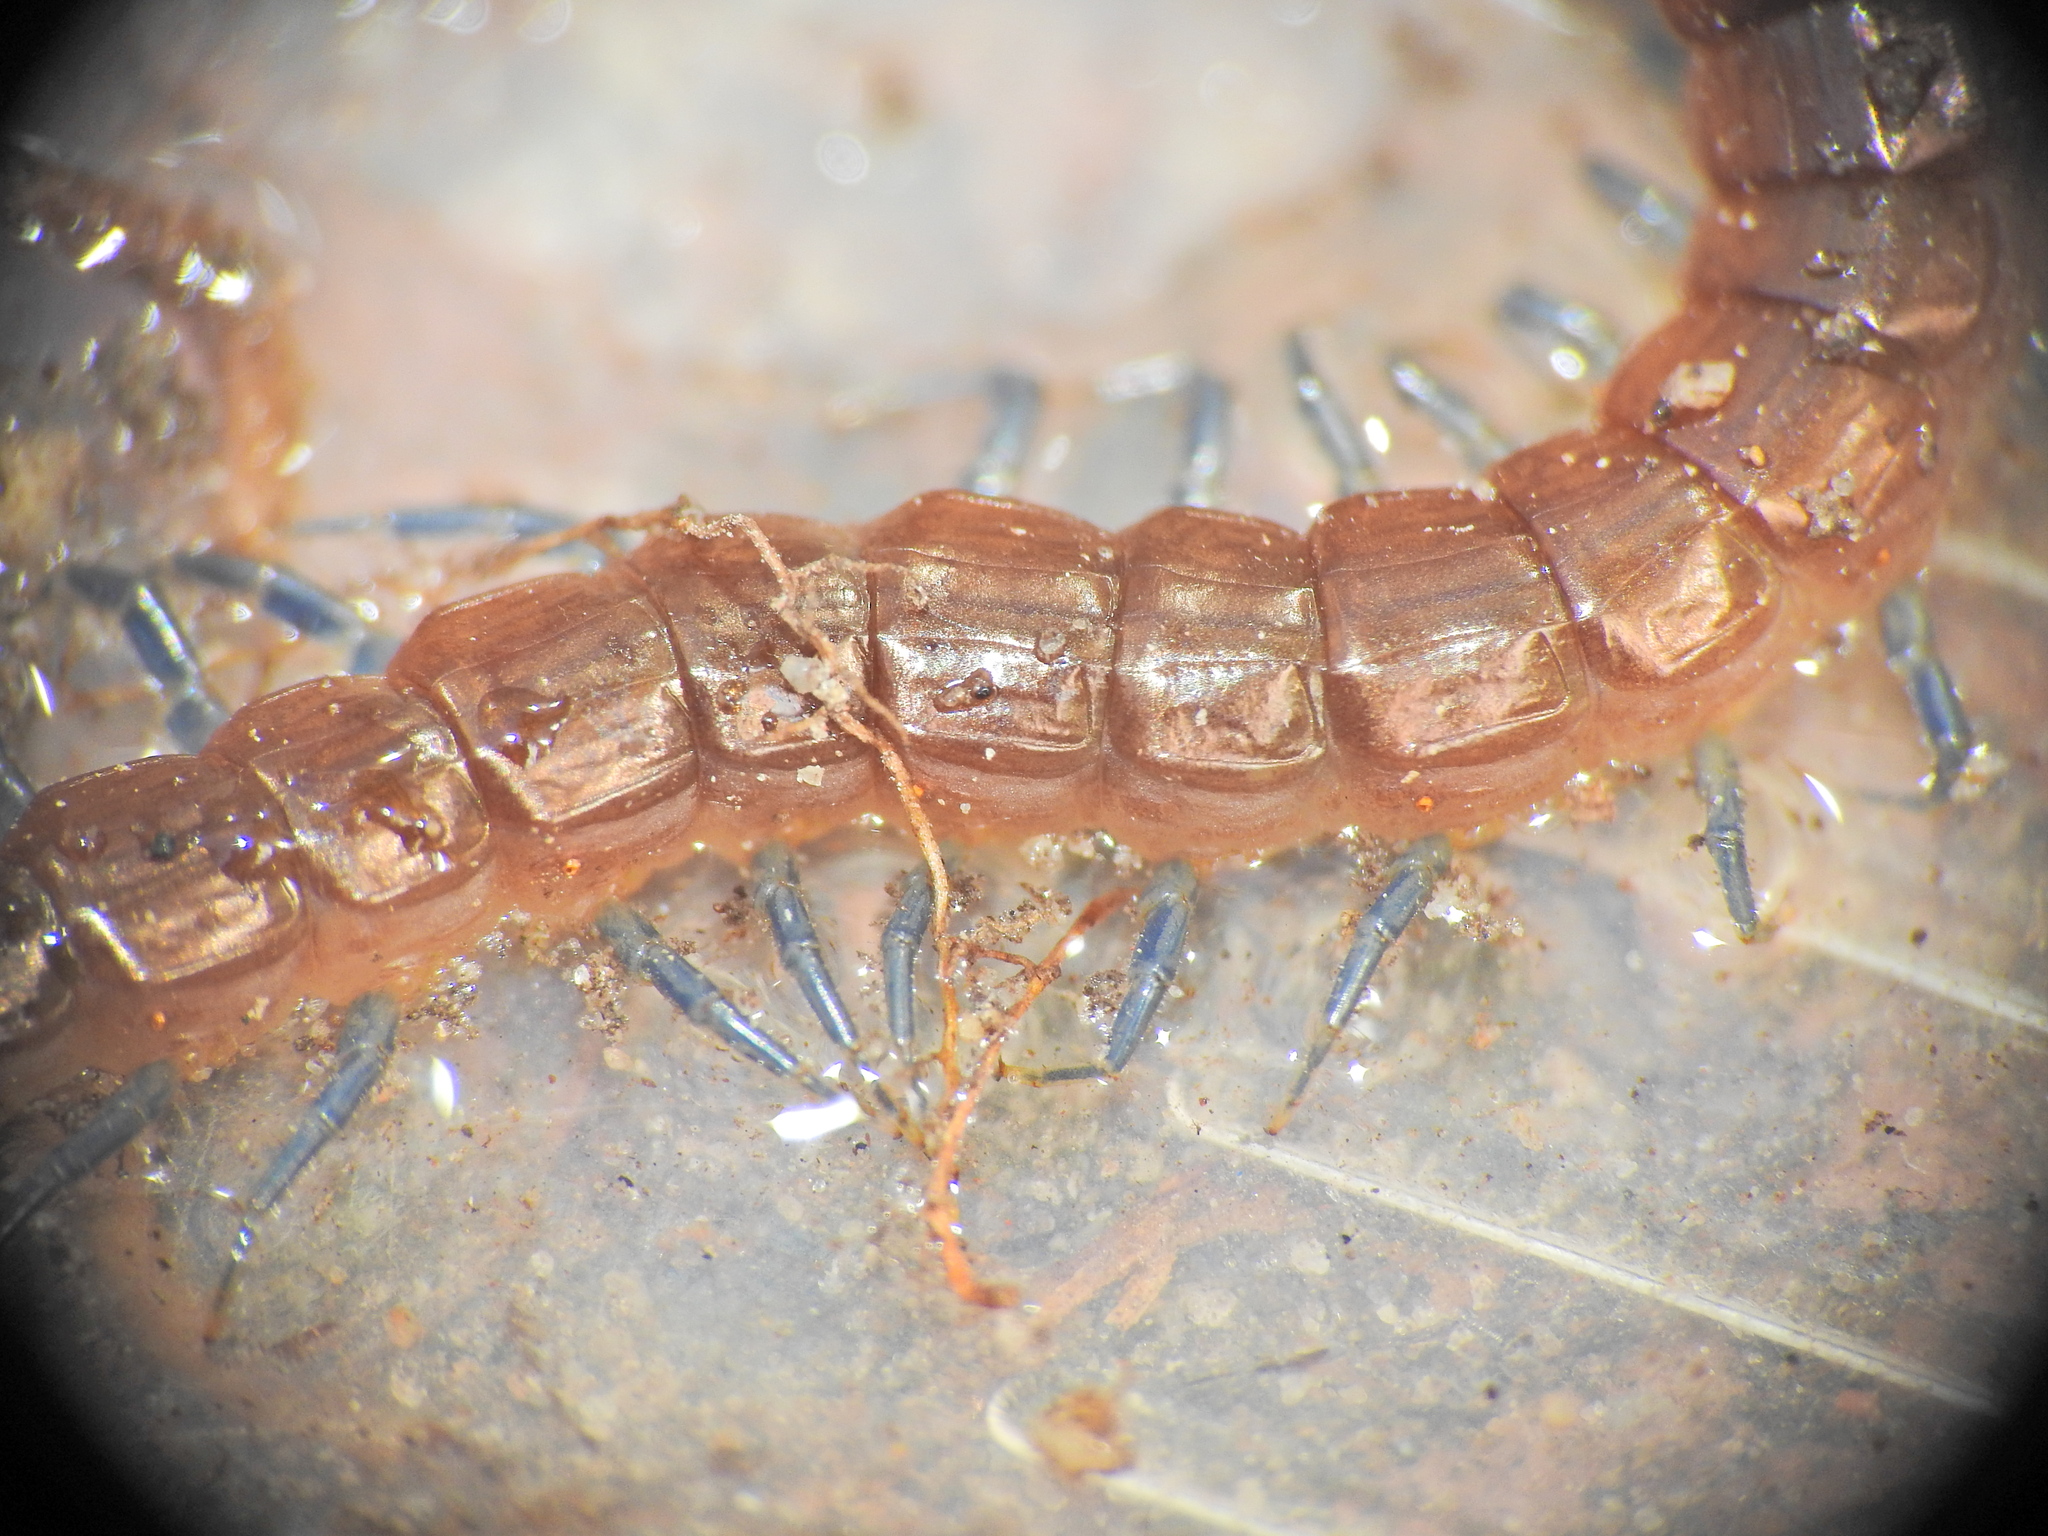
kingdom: Animalia
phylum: Arthropoda
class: Chilopoda
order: Scolopendromorpha
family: Scolopendridae
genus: Rhysida
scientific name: Rhysida nuda
